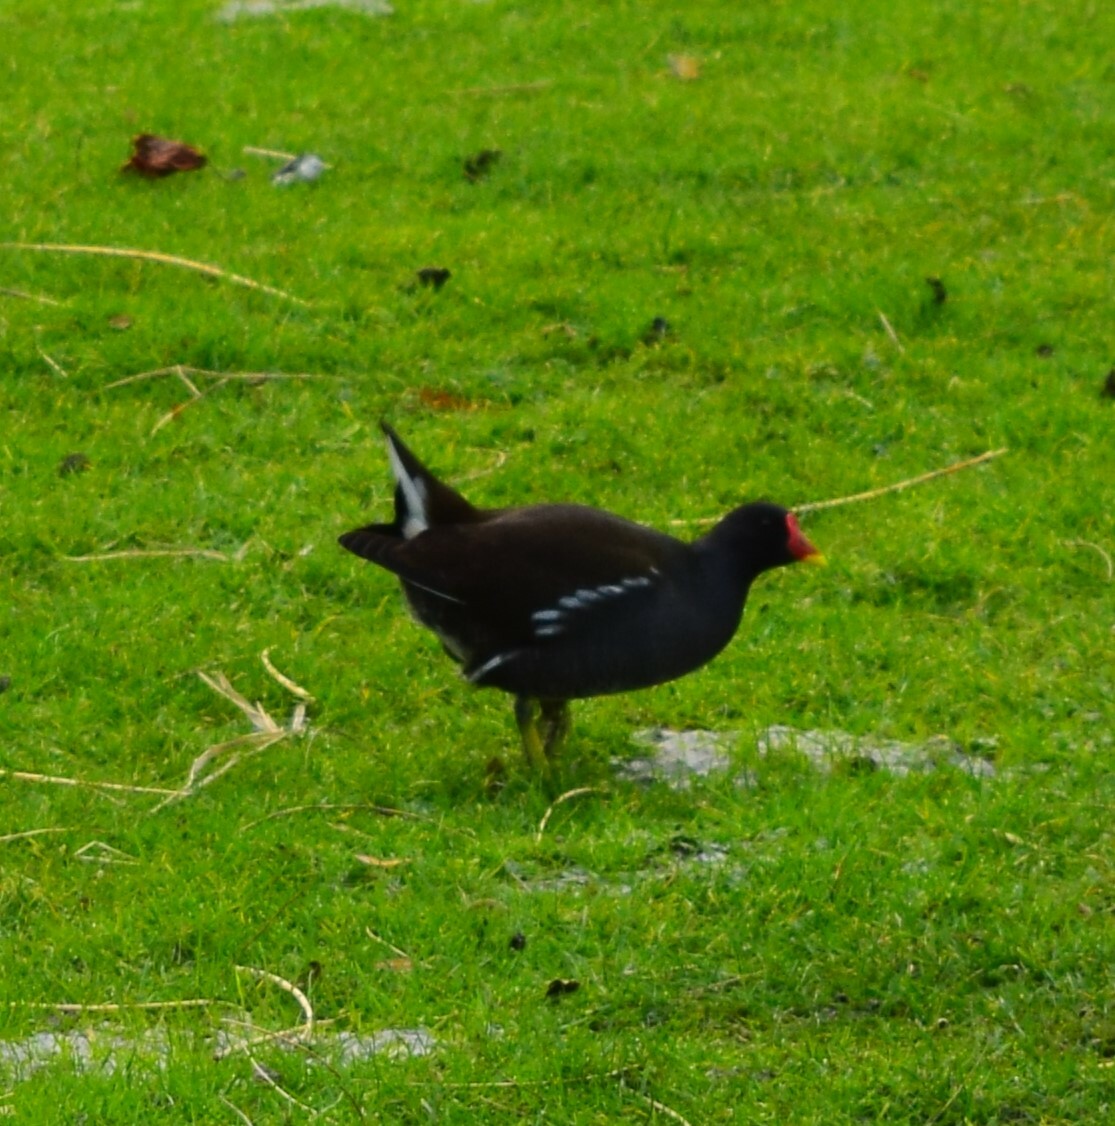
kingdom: Animalia
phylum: Chordata
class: Aves
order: Gruiformes
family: Rallidae
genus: Gallinula
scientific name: Gallinula chloropus
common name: Common moorhen
